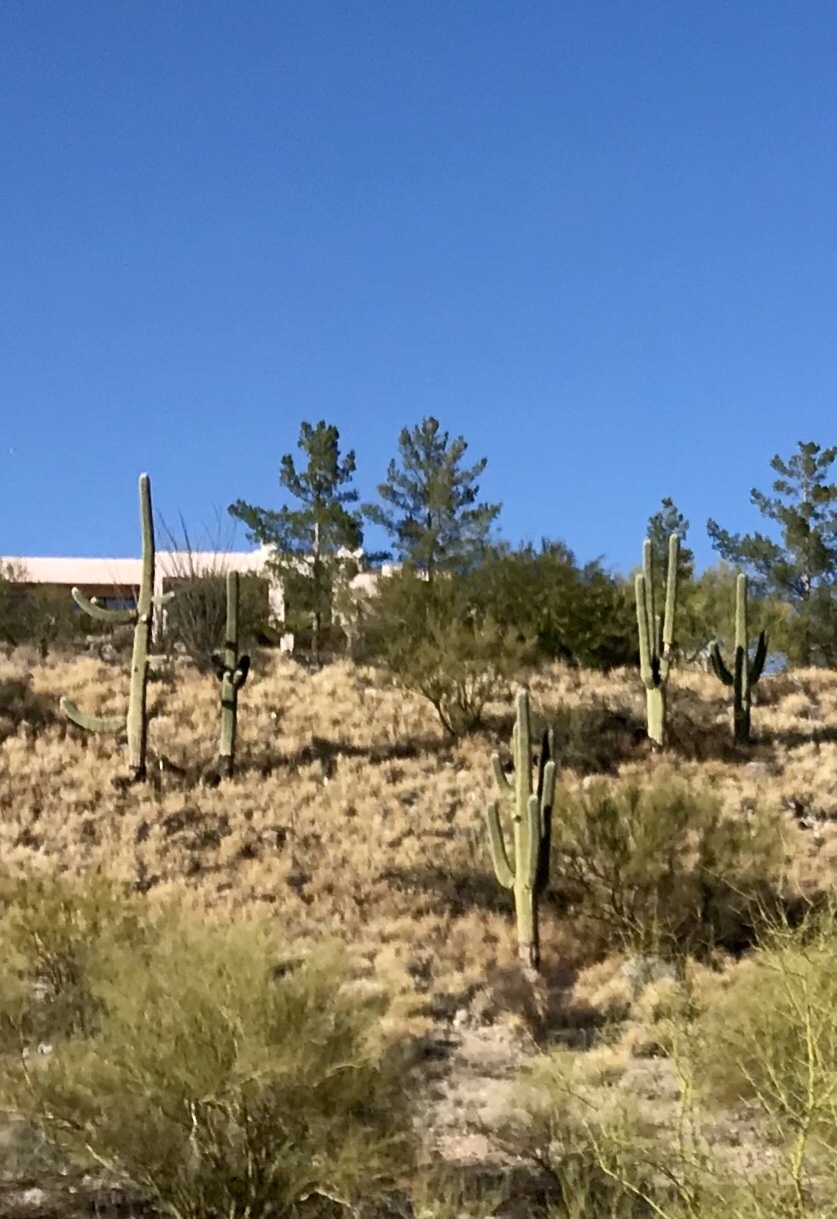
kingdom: Plantae
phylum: Tracheophyta
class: Magnoliopsida
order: Caryophyllales
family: Cactaceae
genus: Carnegiea
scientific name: Carnegiea gigantea
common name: Saguaro
